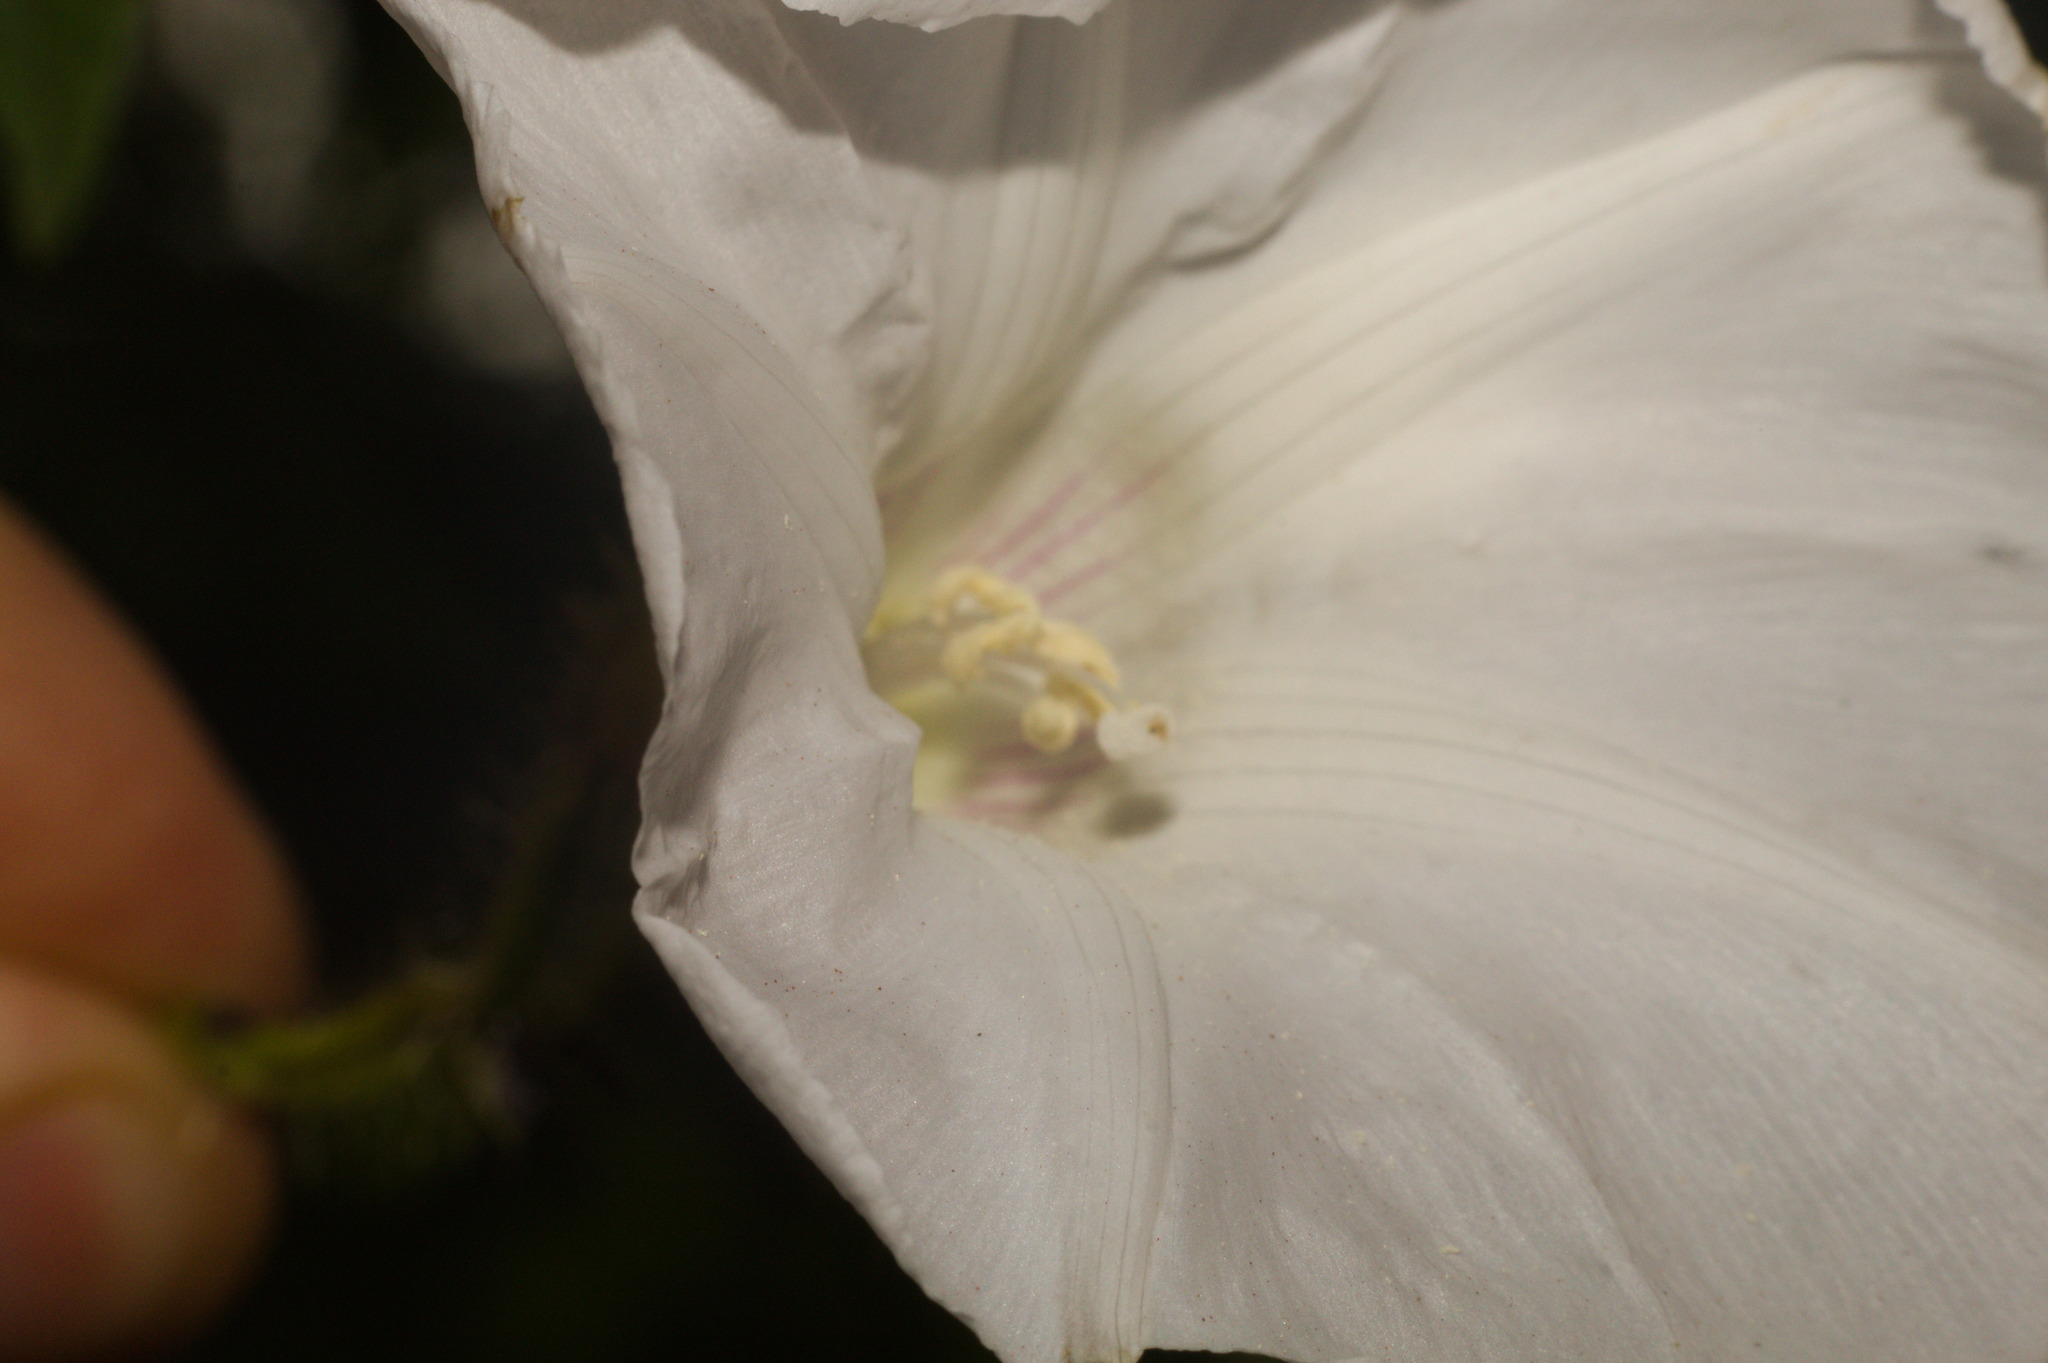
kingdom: Plantae
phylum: Tracheophyta
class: Magnoliopsida
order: Solanales
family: Convolvulaceae
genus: Distimake
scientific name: Distimake dissectus
